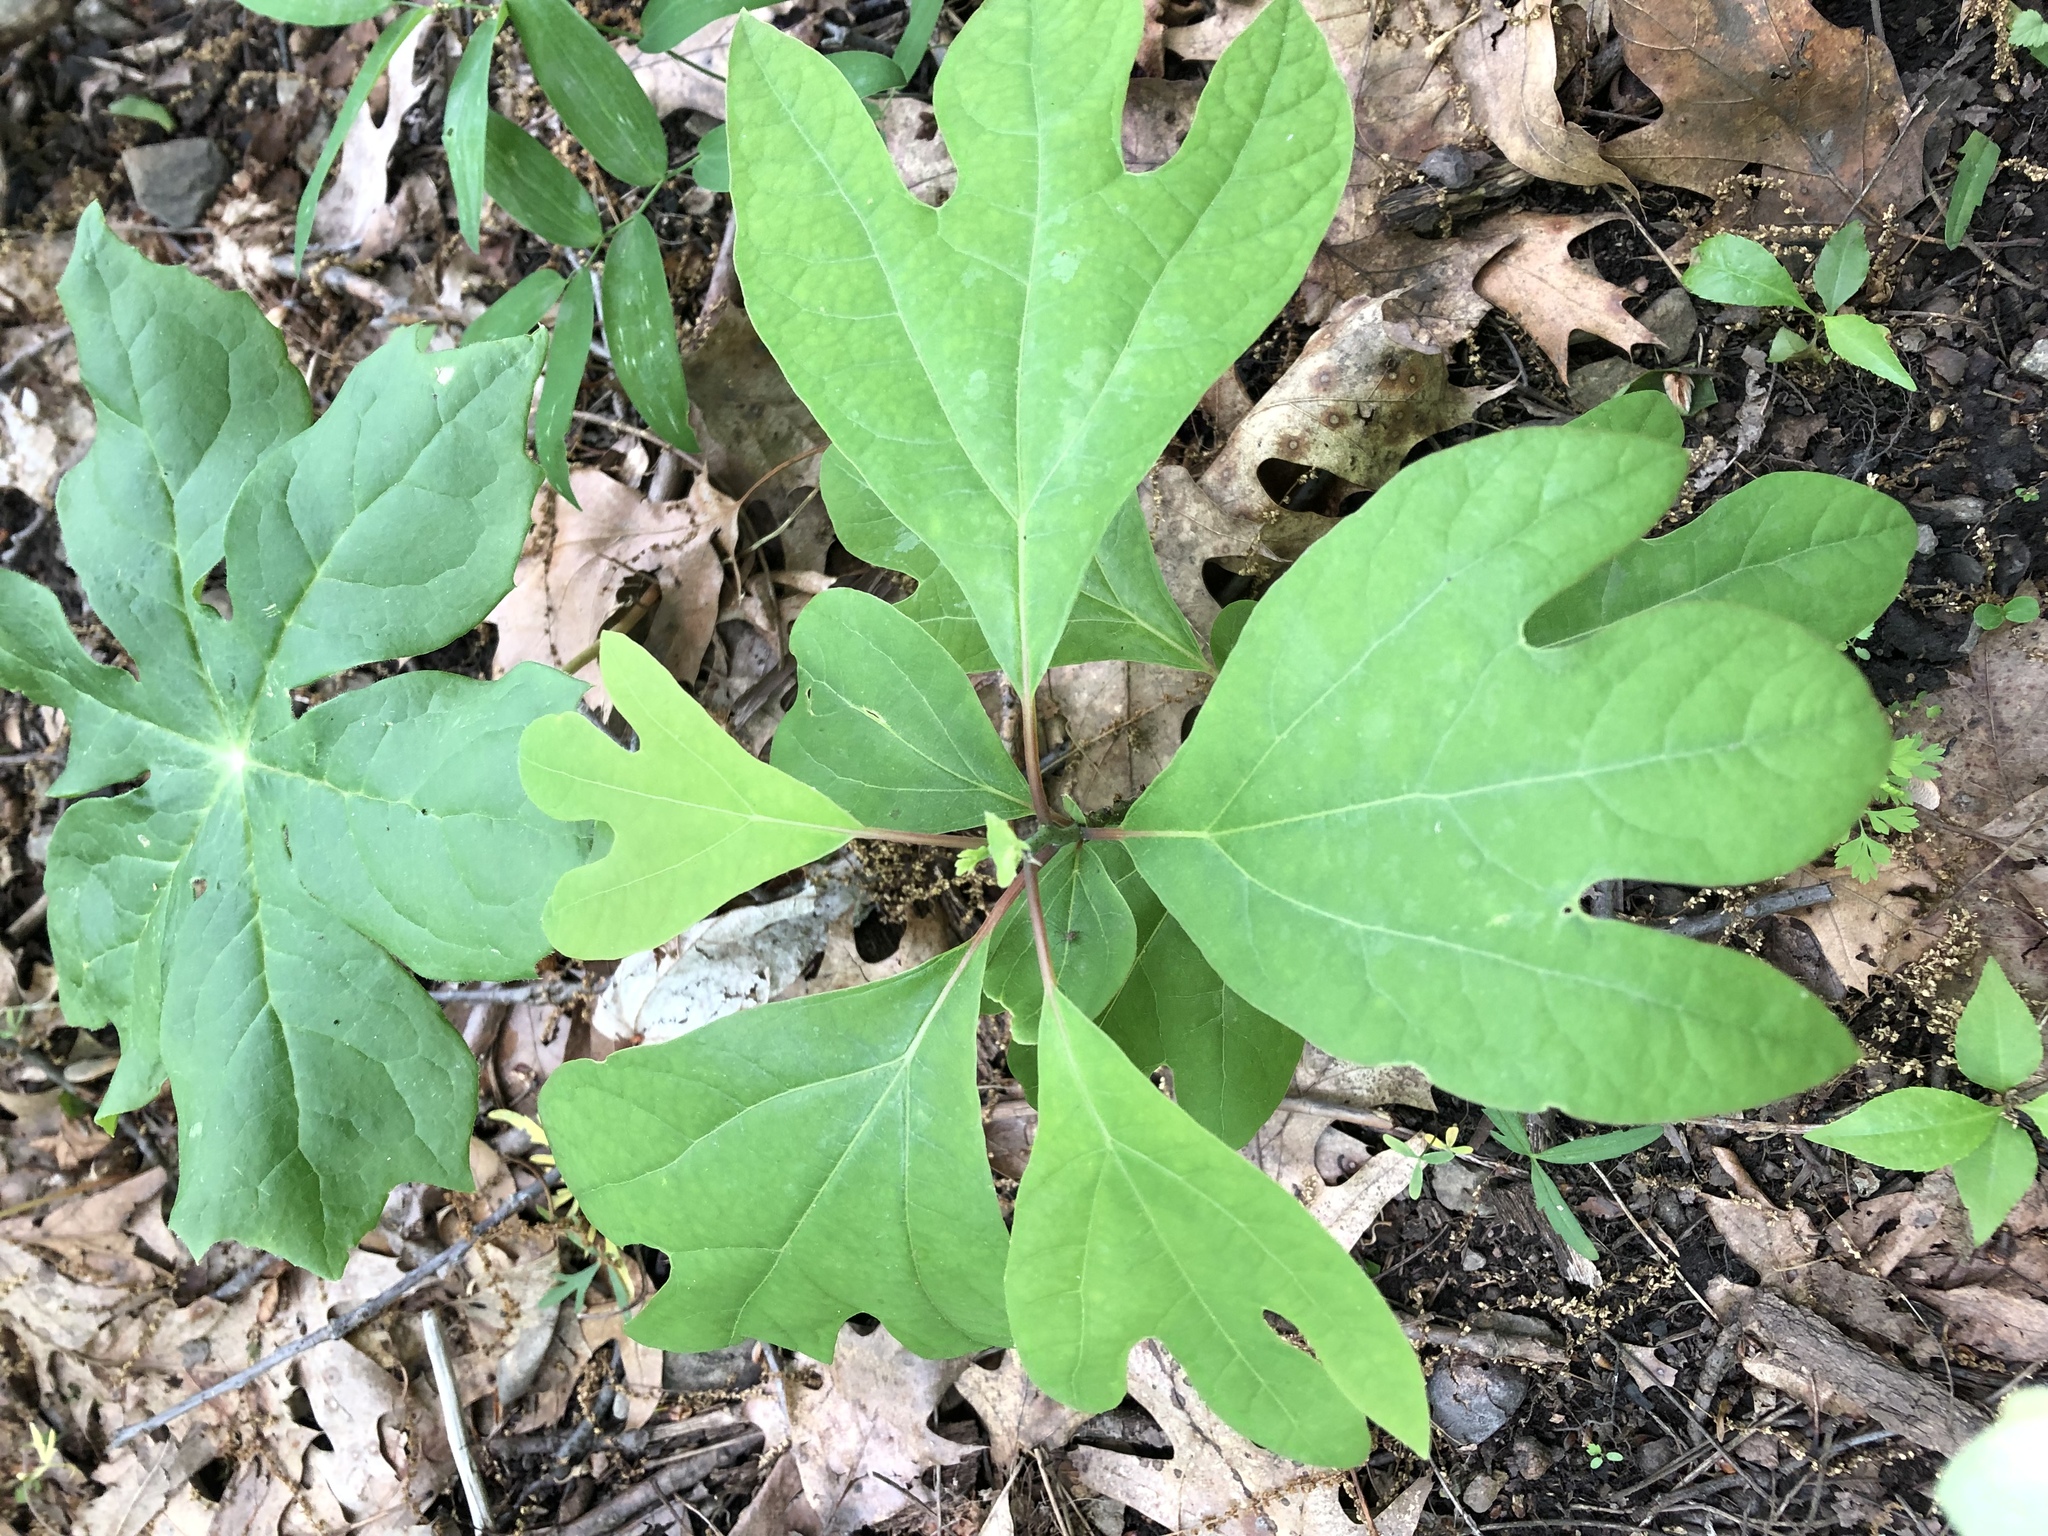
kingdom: Plantae
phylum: Tracheophyta
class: Magnoliopsida
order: Laurales
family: Lauraceae
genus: Sassafras
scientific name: Sassafras albidum
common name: Sassafras
